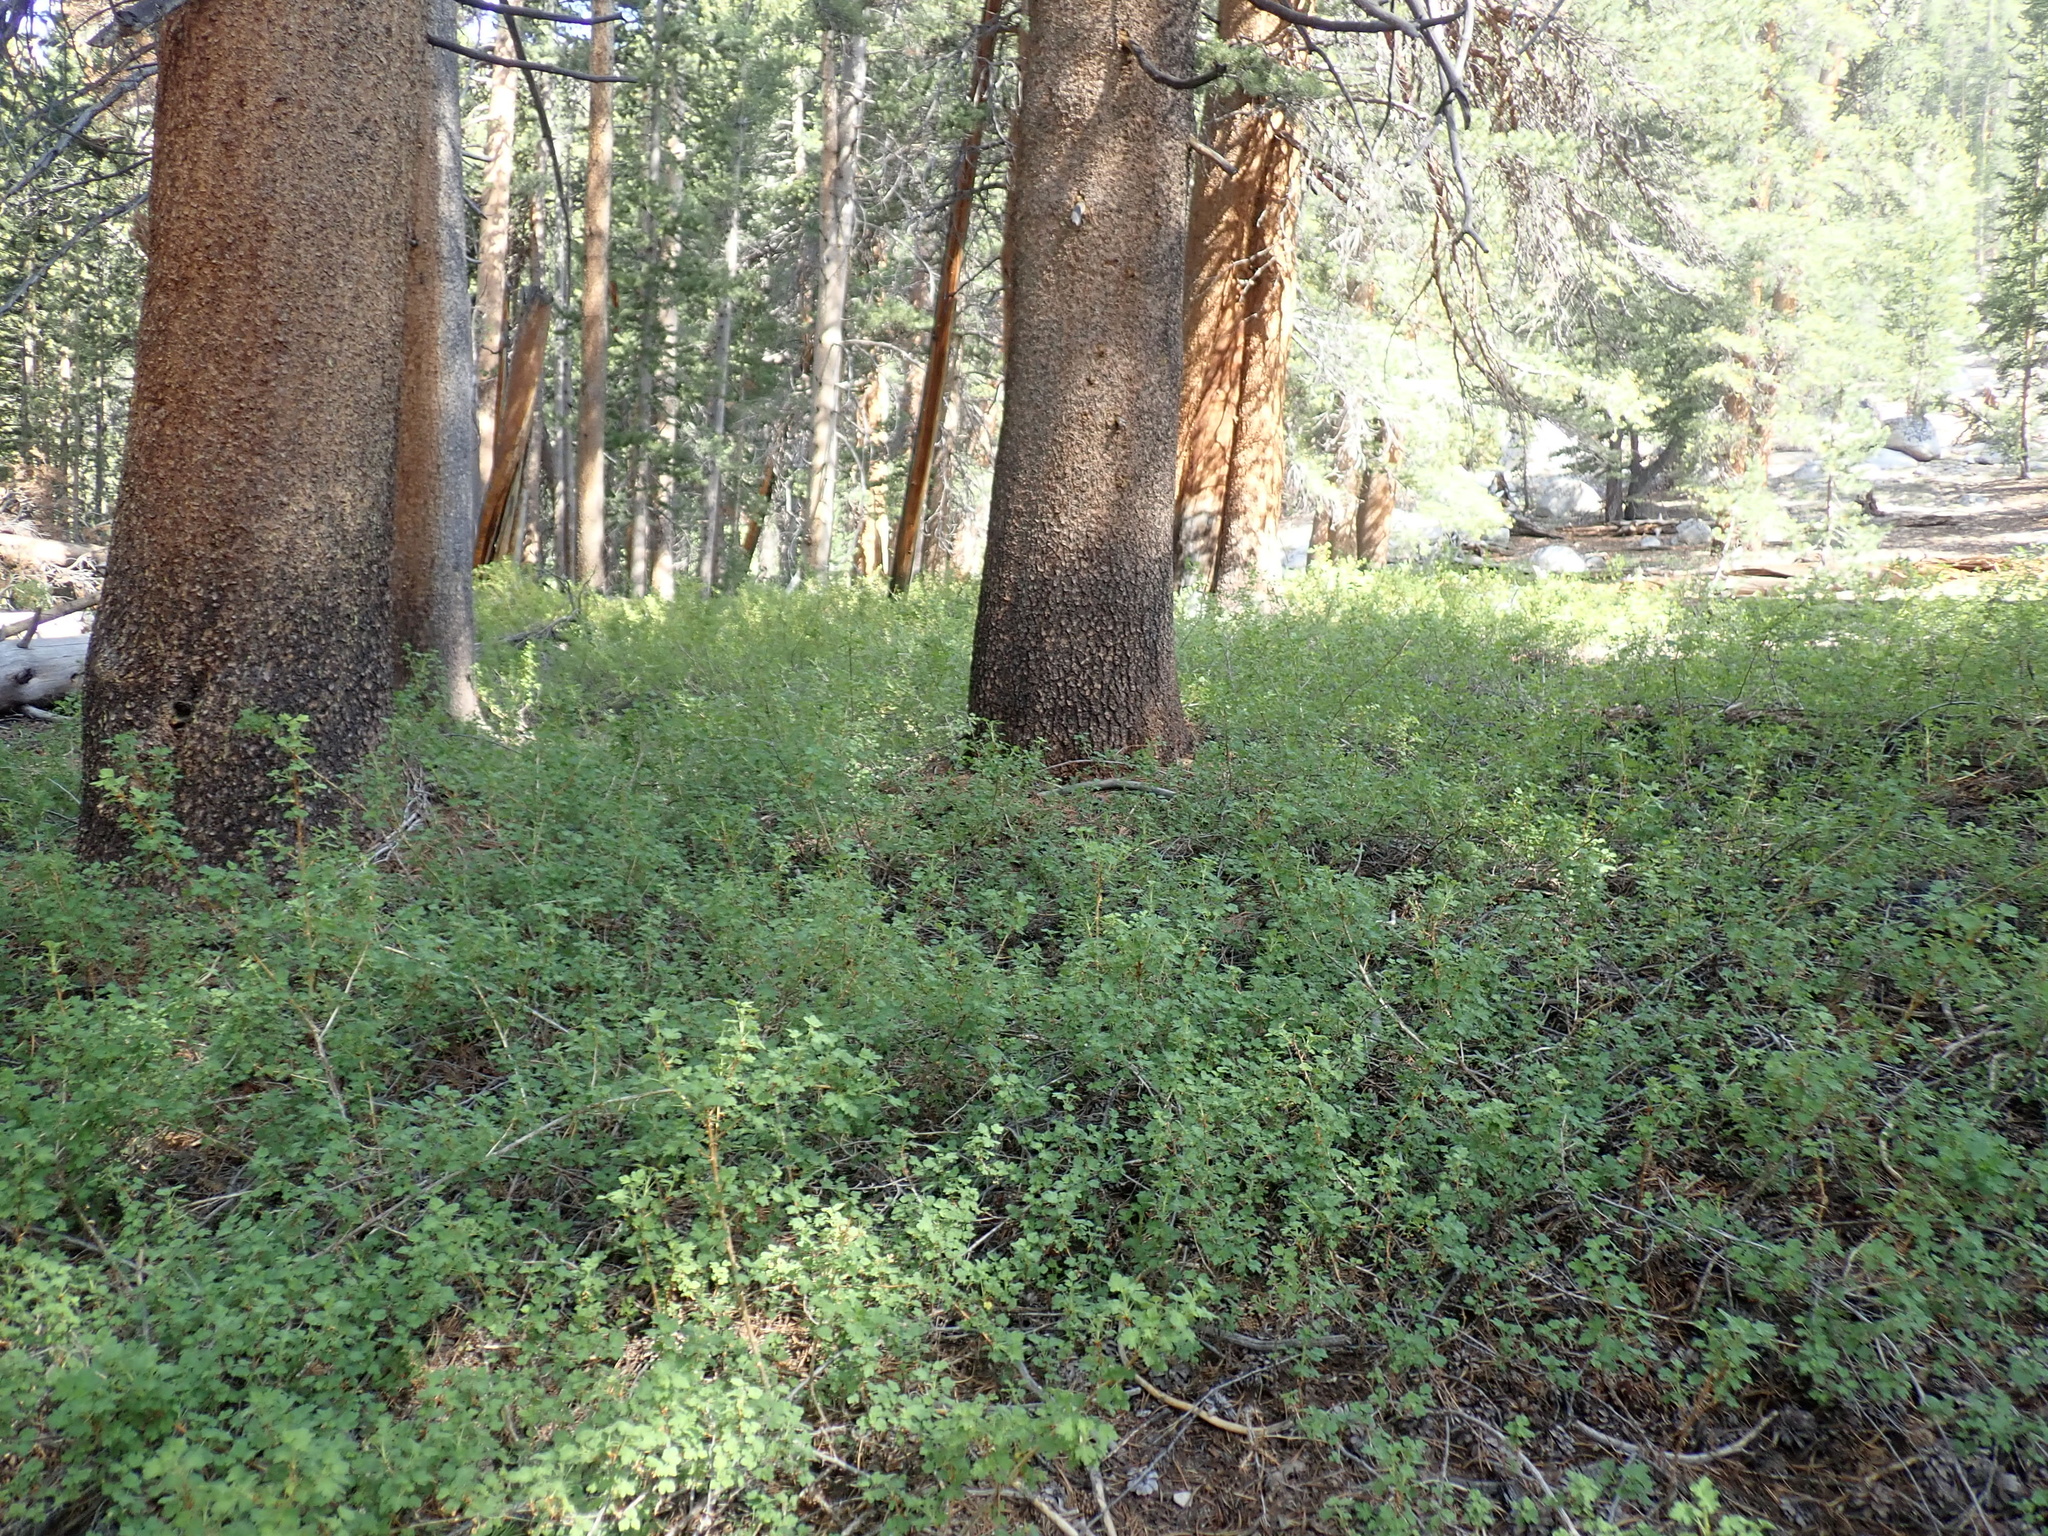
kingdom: Plantae
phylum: Tracheophyta
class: Magnoliopsida
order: Saxifragales
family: Grossulariaceae
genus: Ribes
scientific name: Ribes montigenum
